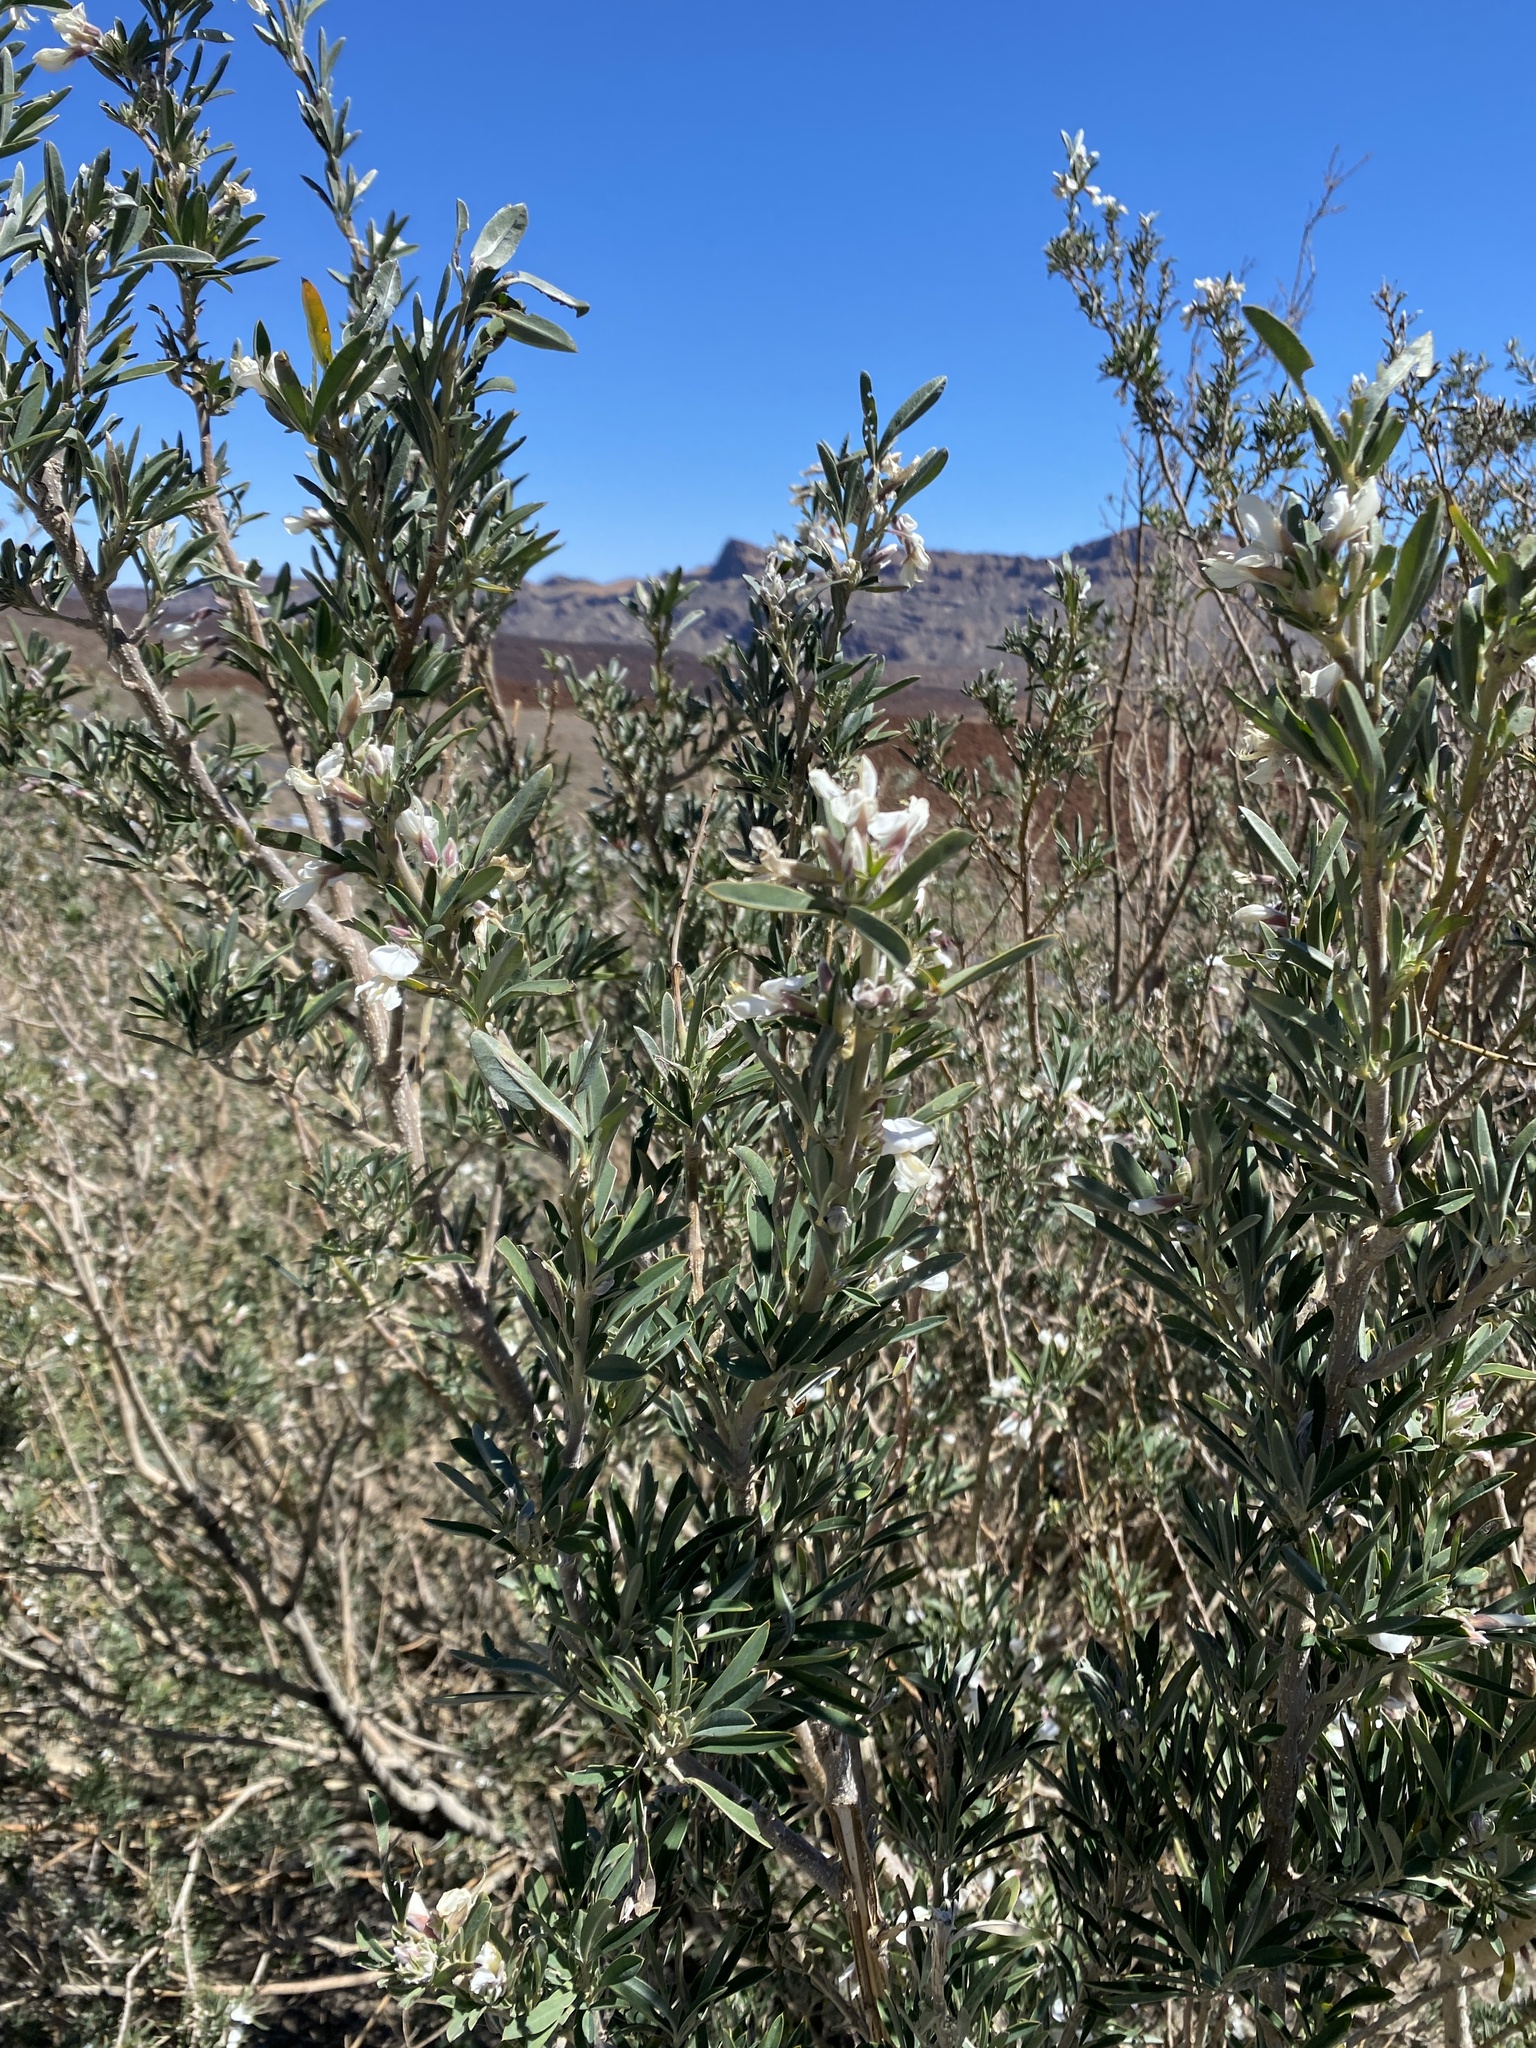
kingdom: Plantae
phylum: Tracheophyta
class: Magnoliopsida
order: Fabales
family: Fabaceae
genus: Chamaecytisus
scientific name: Chamaecytisus prolifer
